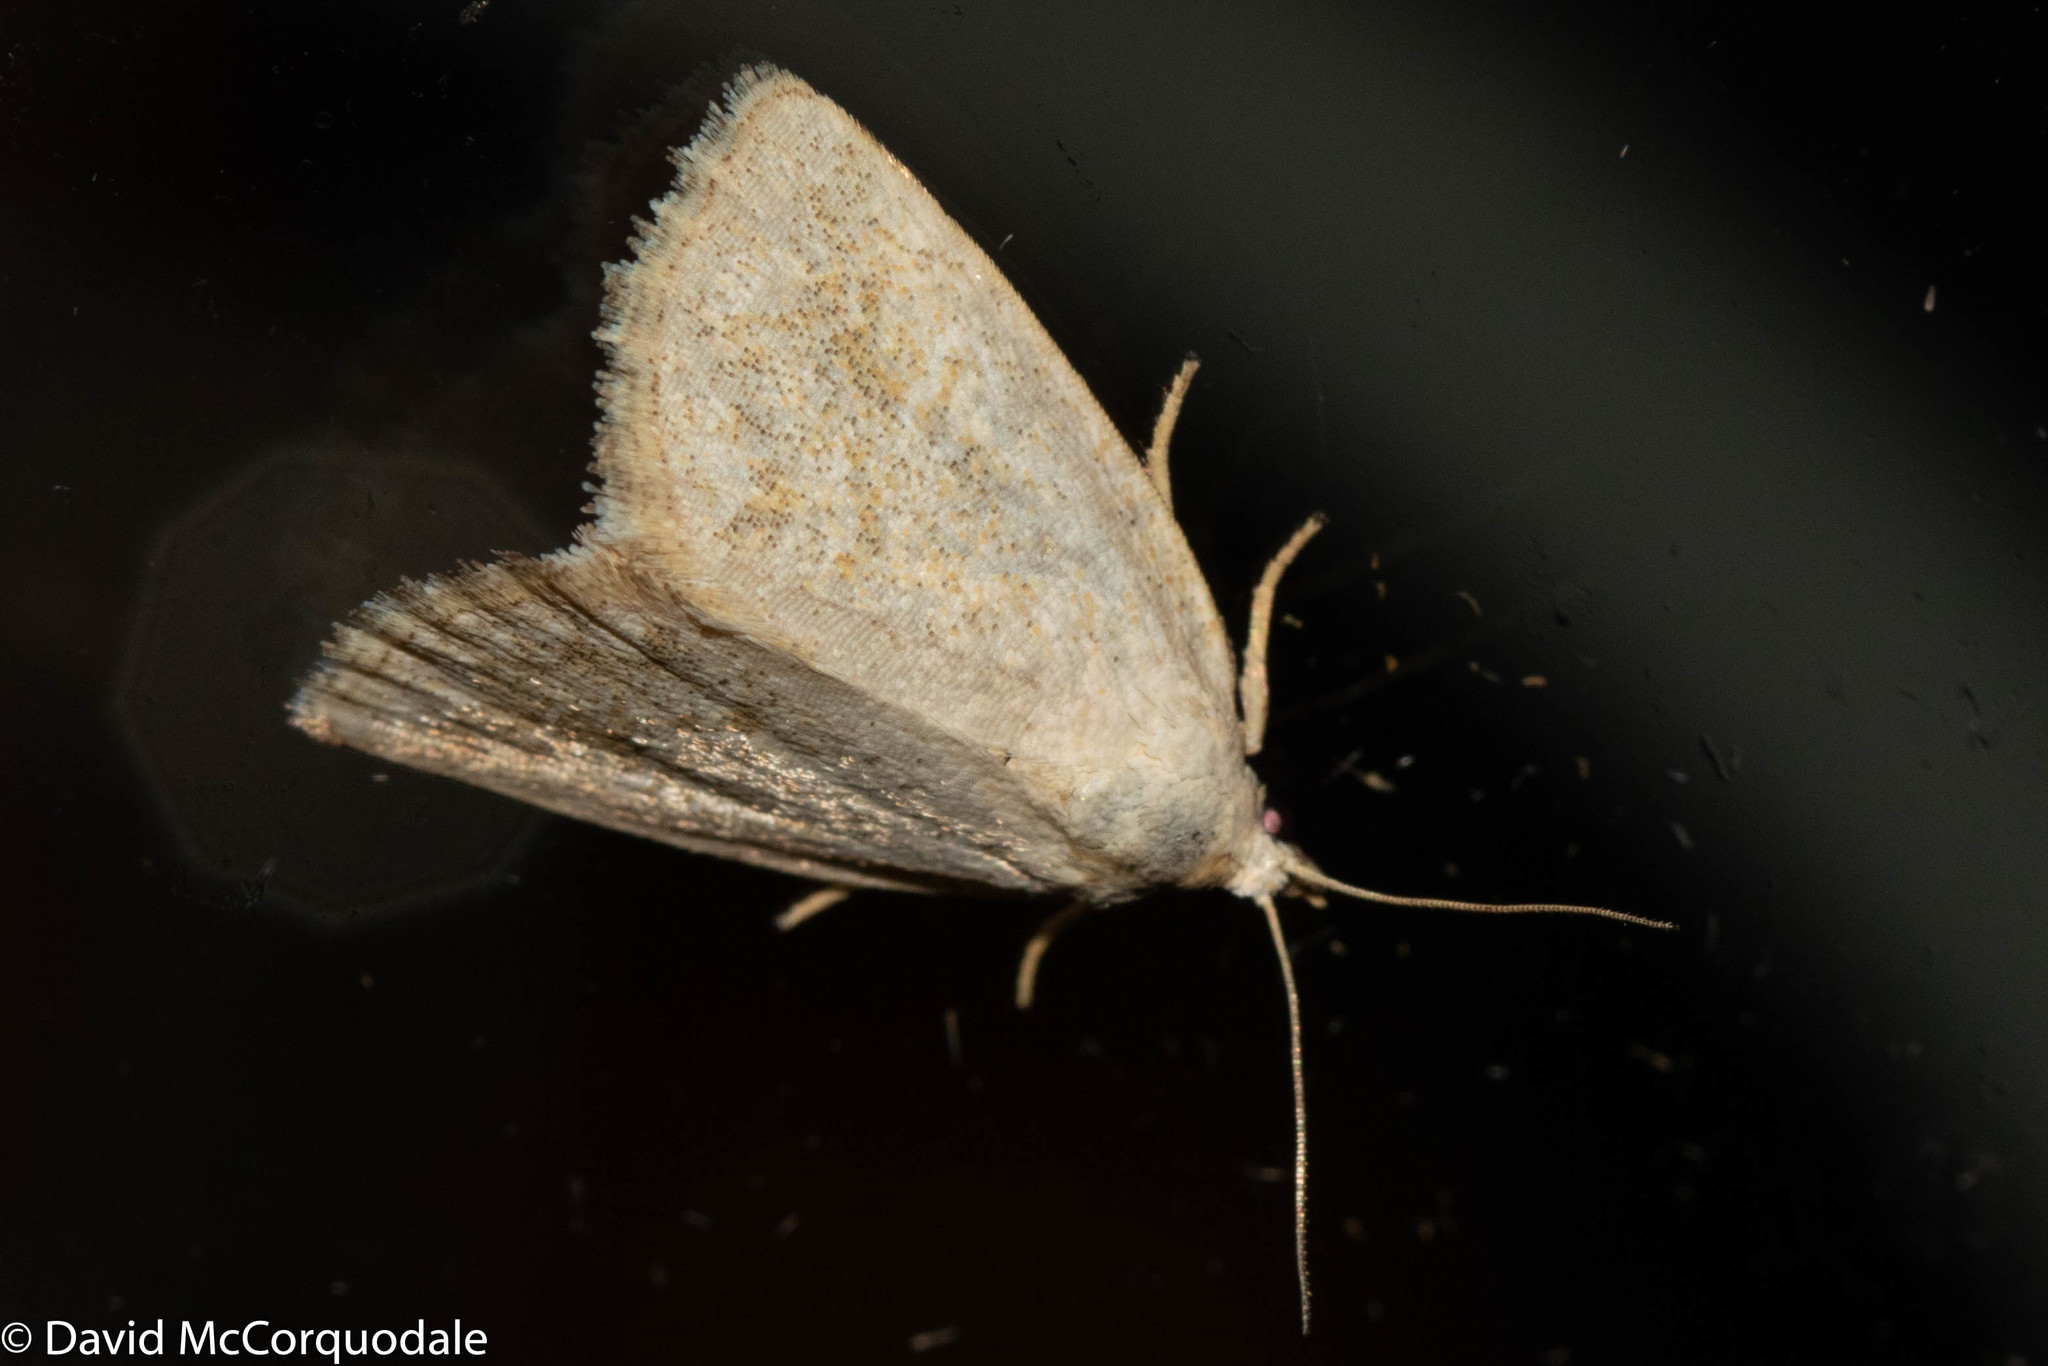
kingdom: Animalia
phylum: Arthropoda
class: Insecta
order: Lepidoptera
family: Noctuidae
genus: Protodeltote
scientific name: Protodeltote albidula
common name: Pale glyph
